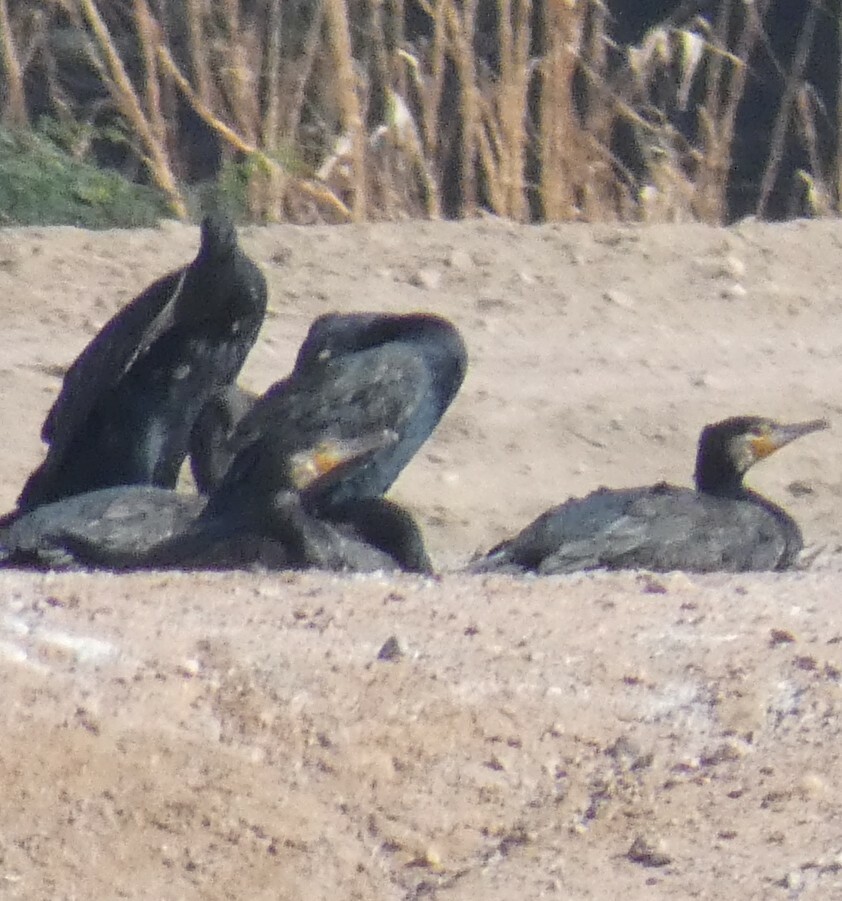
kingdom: Animalia
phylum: Chordata
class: Aves
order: Suliformes
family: Phalacrocoracidae
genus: Phalacrocorax
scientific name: Phalacrocorax carbo
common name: Great cormorant
